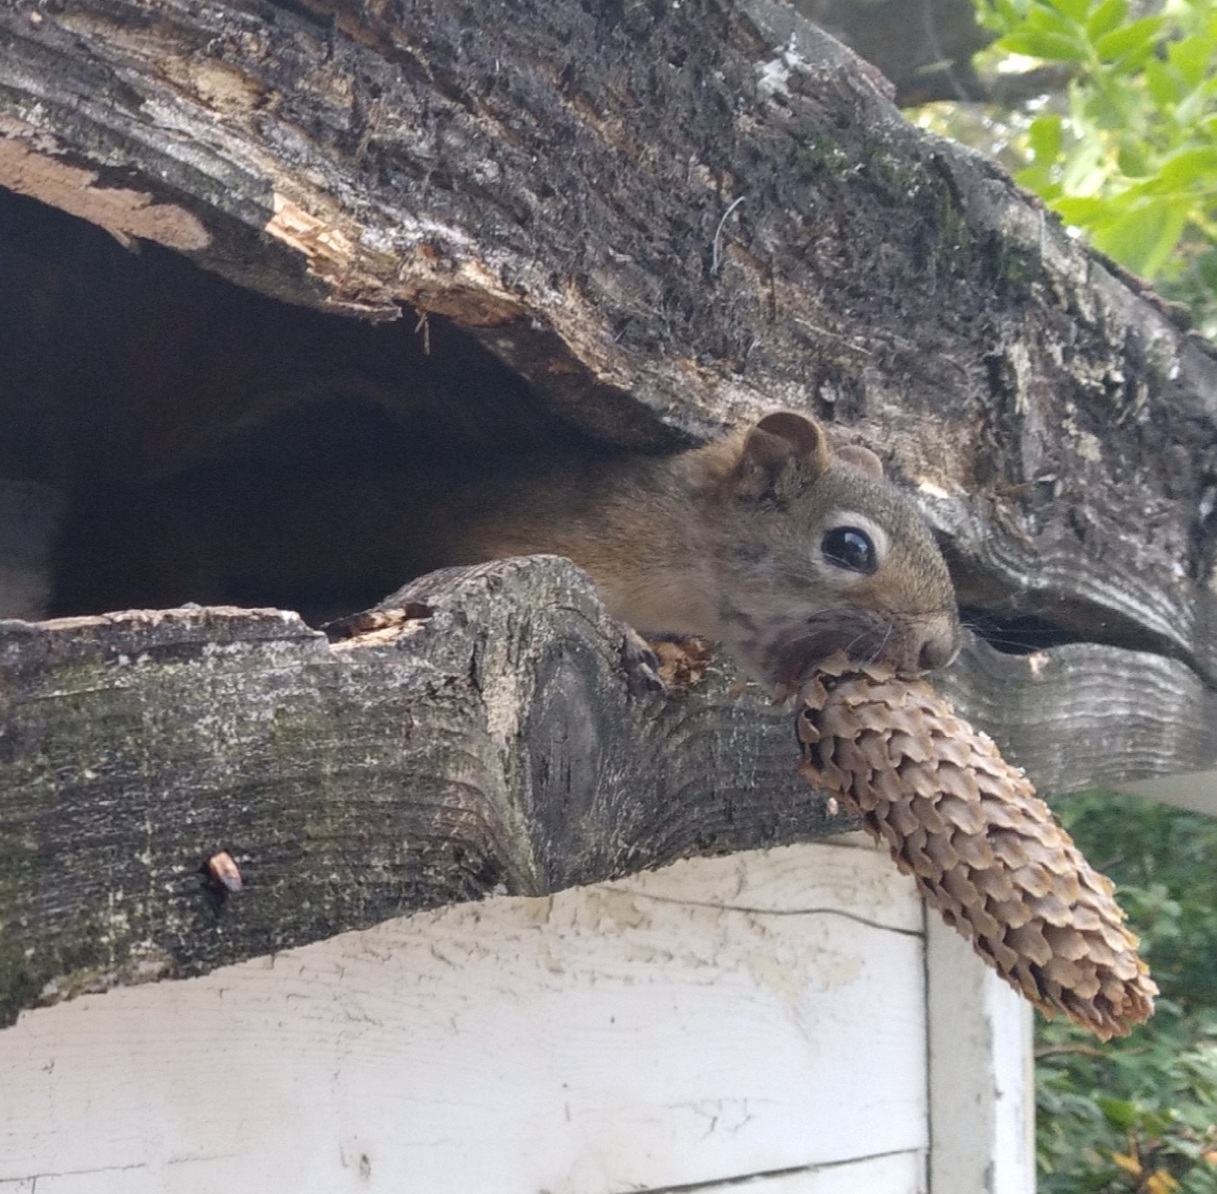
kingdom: Animalia
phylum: Chordata
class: Mammalia
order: Rodentia
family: Sciuridae
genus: Tamiasciurus
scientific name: Tamiasciurus hudsonicus
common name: Red squirrel
